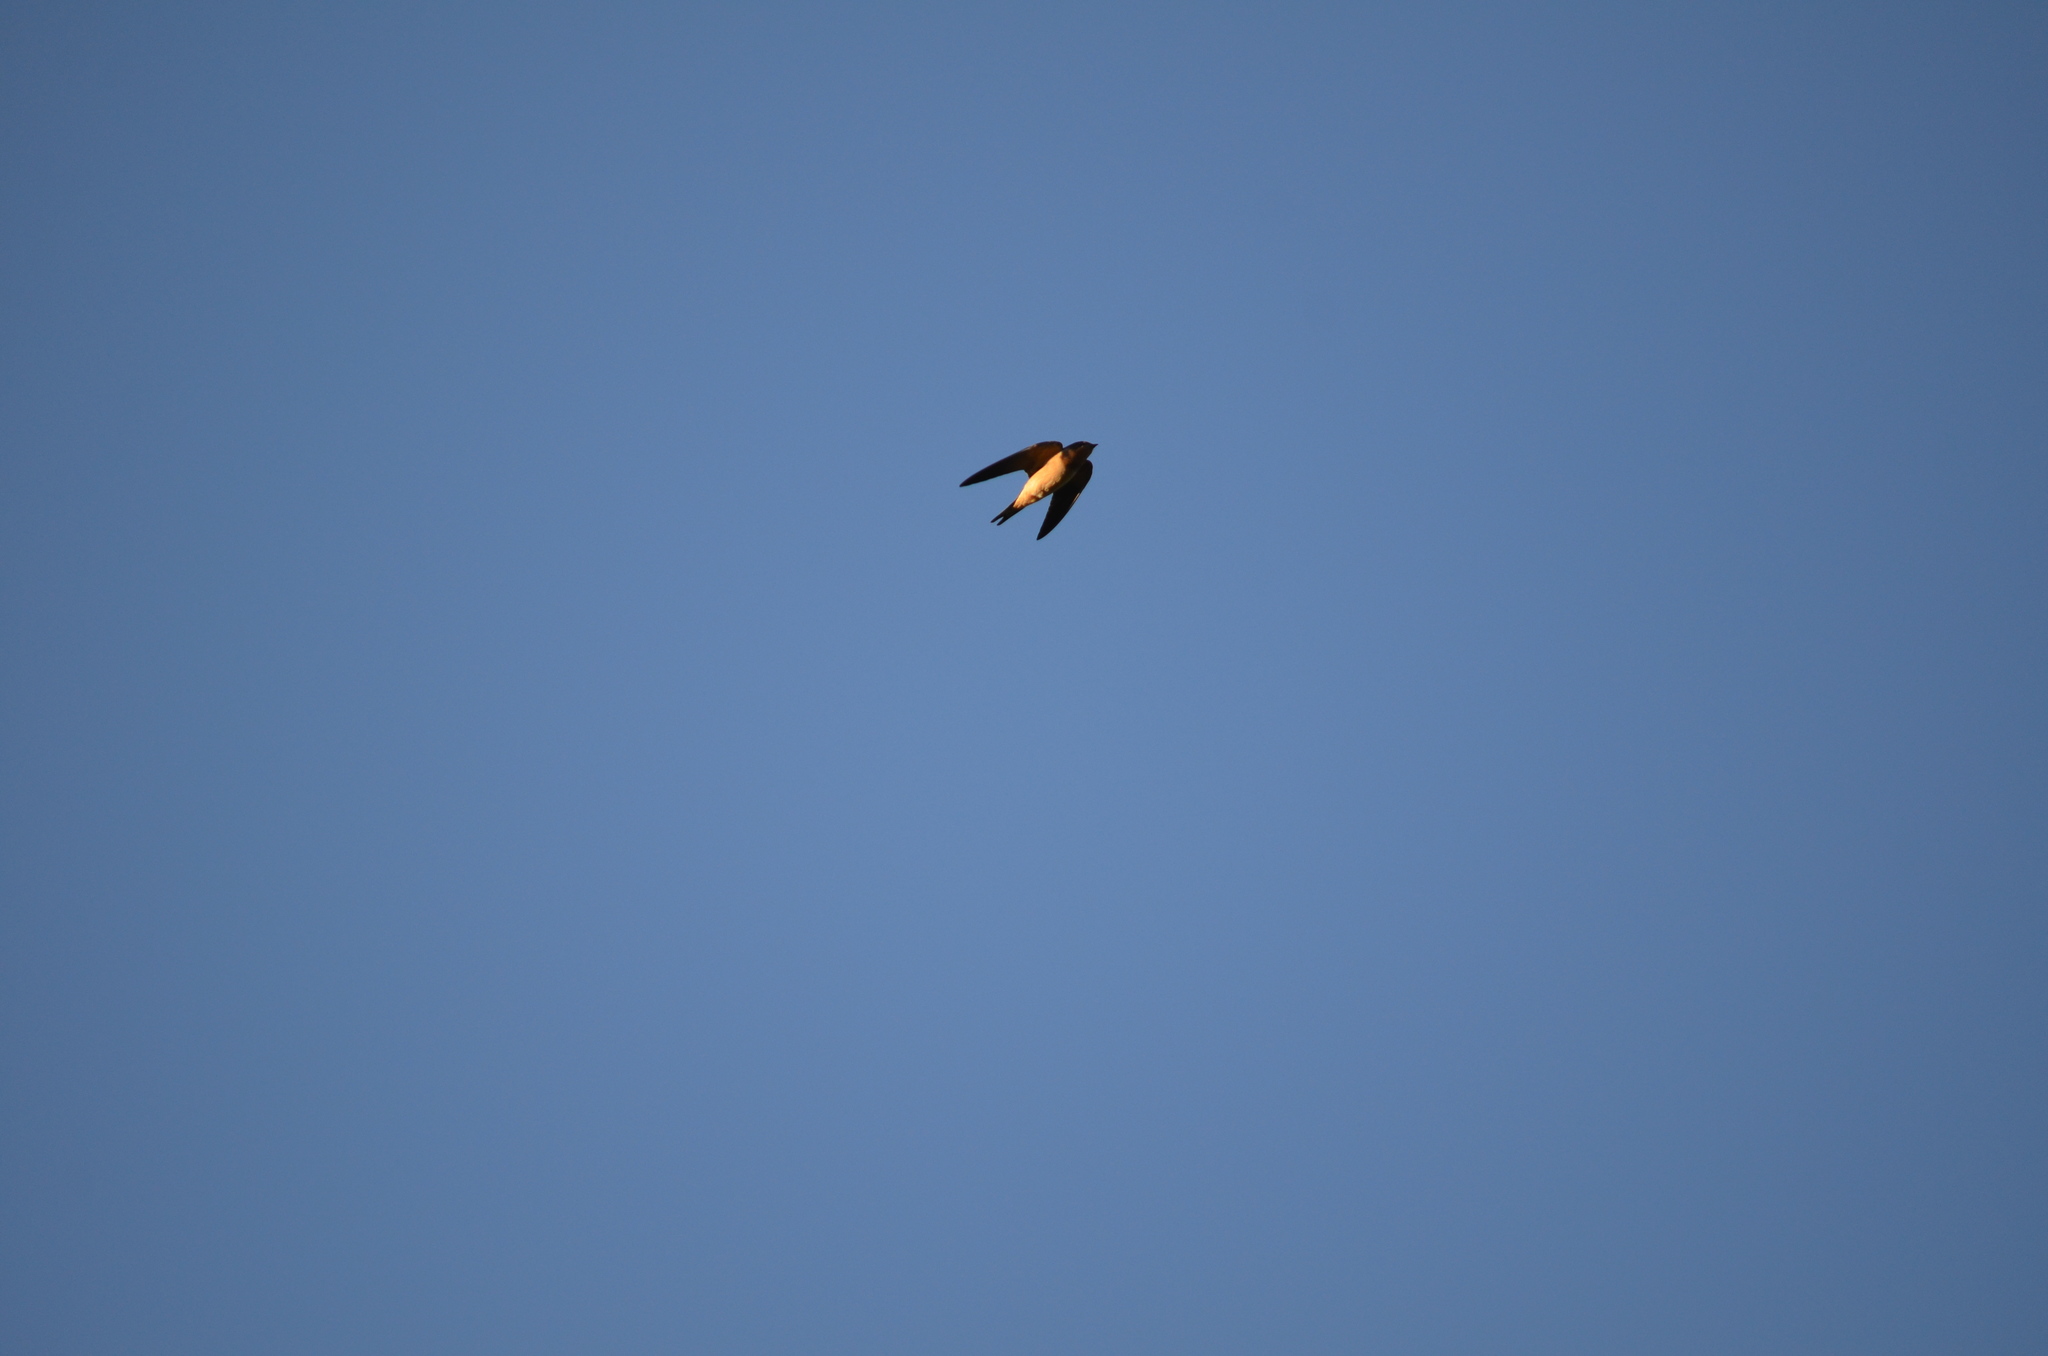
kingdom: Animalia
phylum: Chordata
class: Aves
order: Passeriformes
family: Hirundinidae
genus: Hirundo
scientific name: Hirundo rustica
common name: Barn swallow
